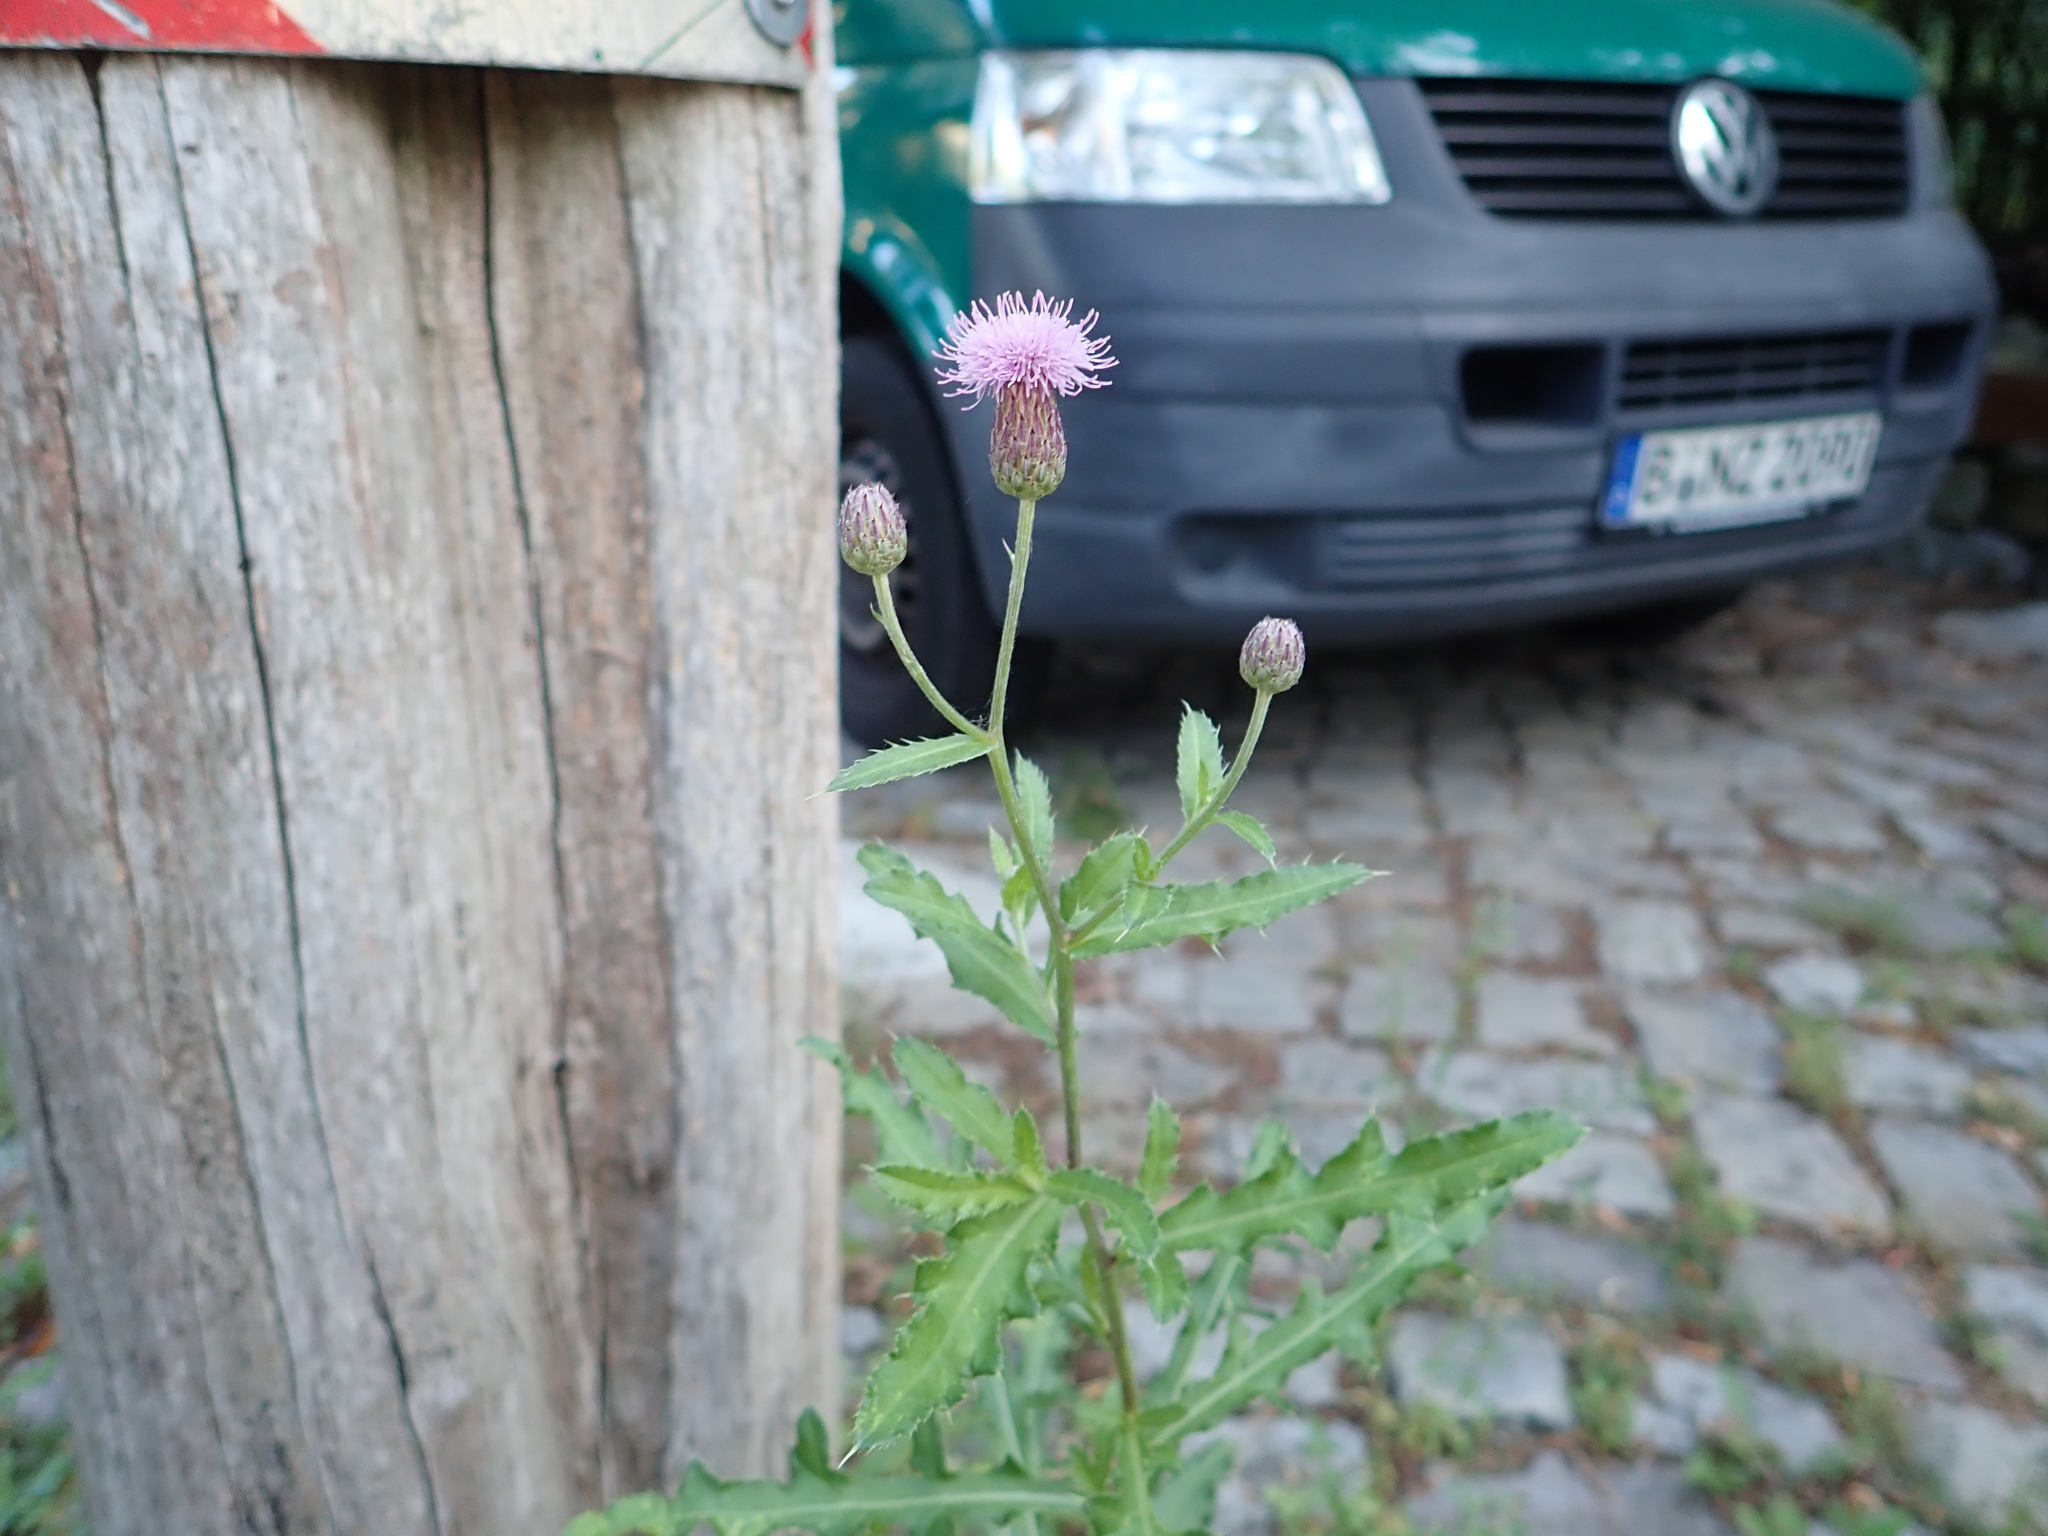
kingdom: Plantae
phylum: Tracheophyta
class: Magnoliopsida
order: Asterales
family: Asteraceae
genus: Cirsium
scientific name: Cirsium arvense
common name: Creeping thistle
